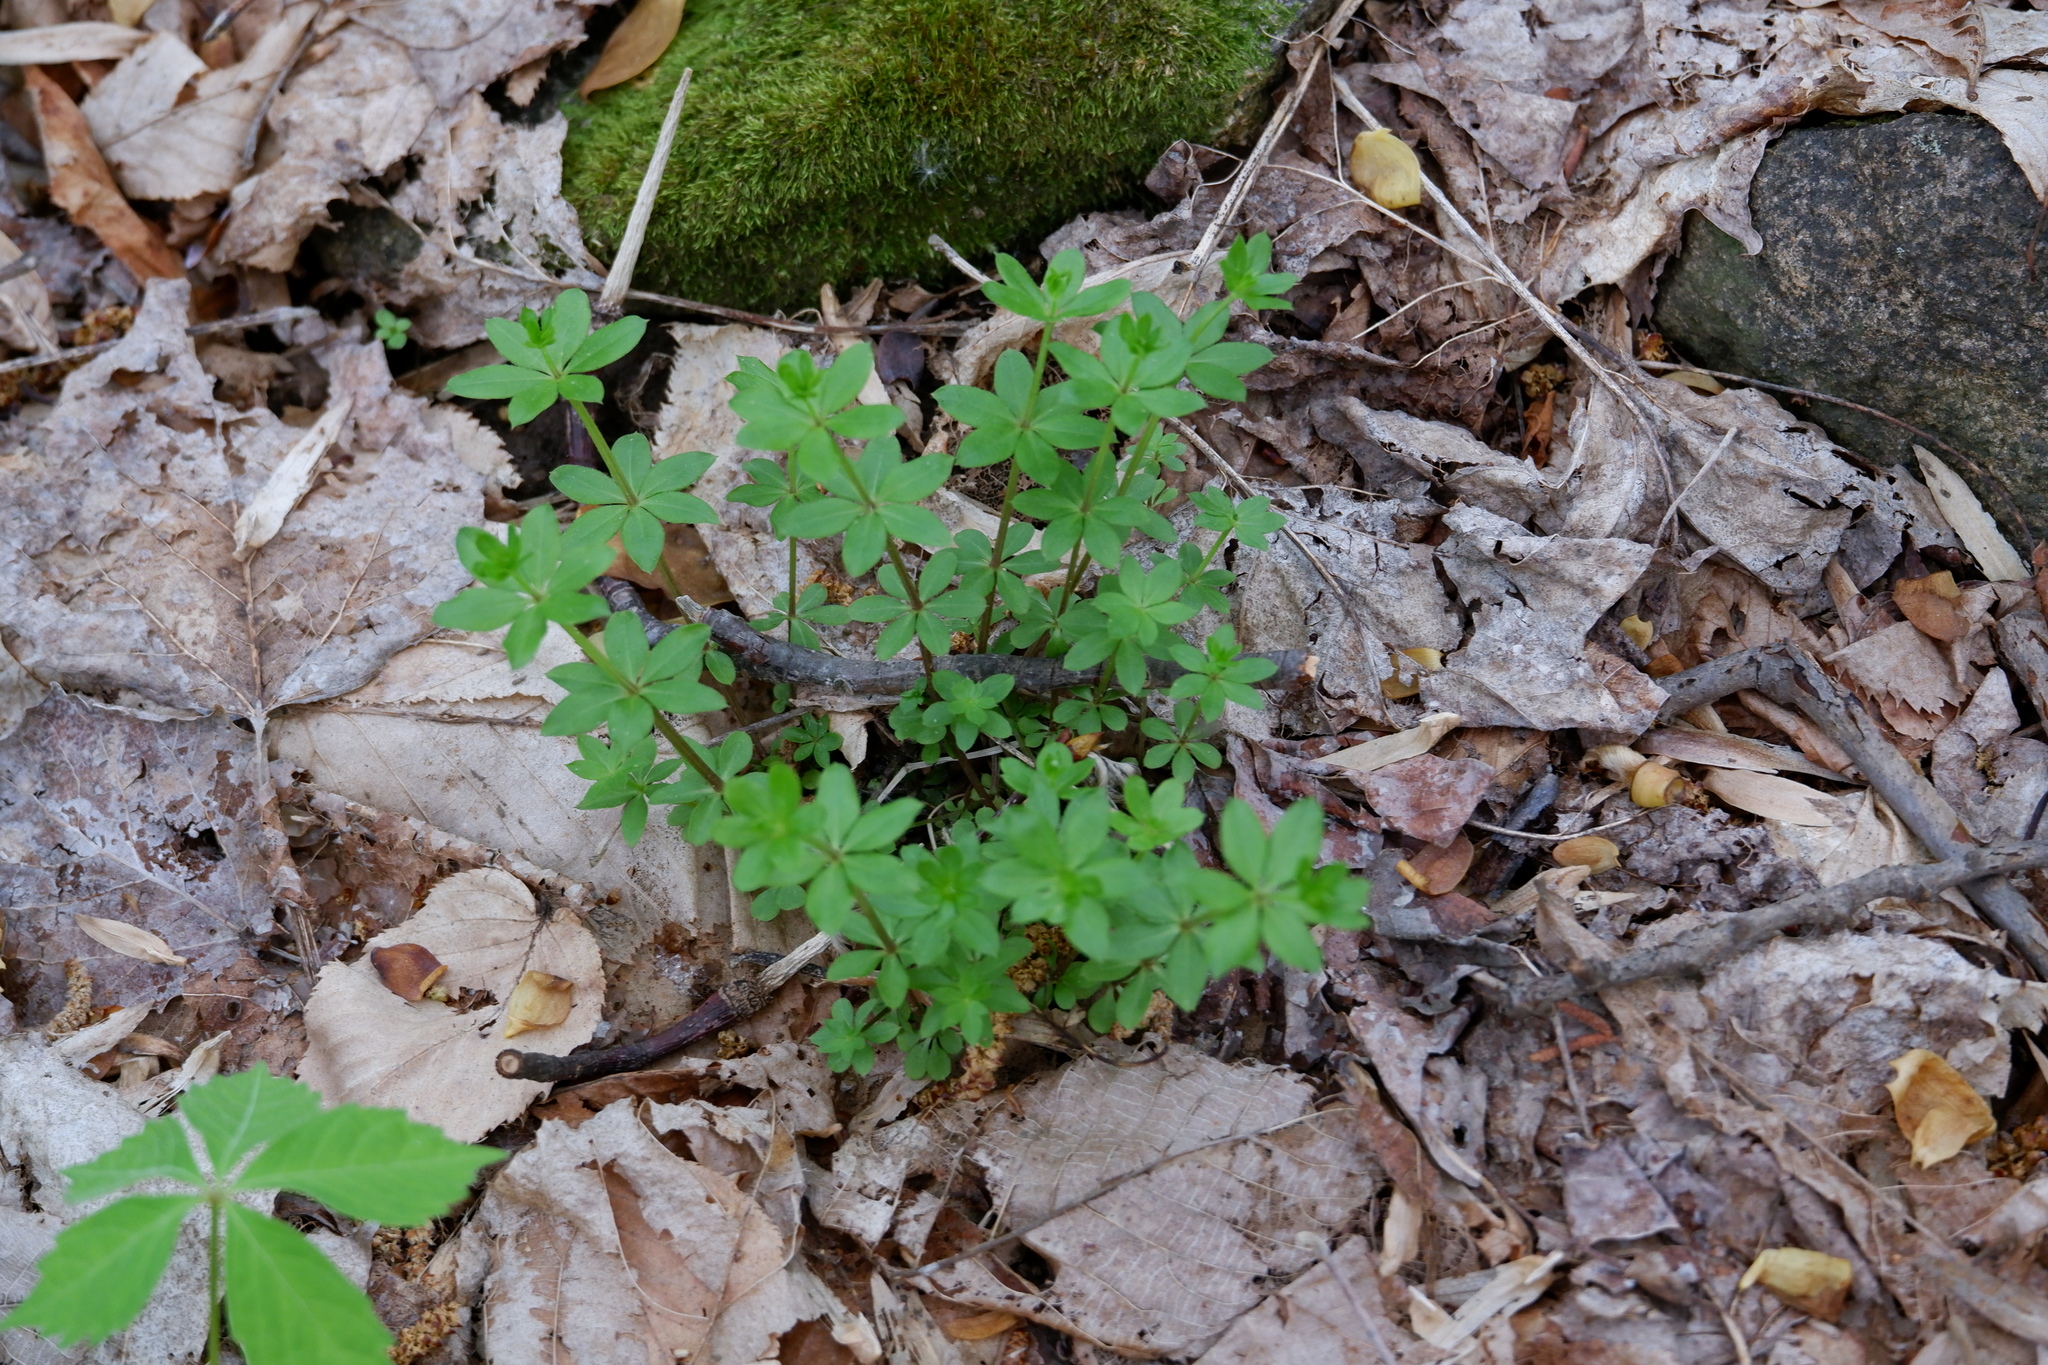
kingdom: Plantae
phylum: Tracheophyta
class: Magnoliopsida
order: Gentianales
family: Rubiaceae
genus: Galium
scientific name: Galium triflorum
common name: Fragrant bedstraw
